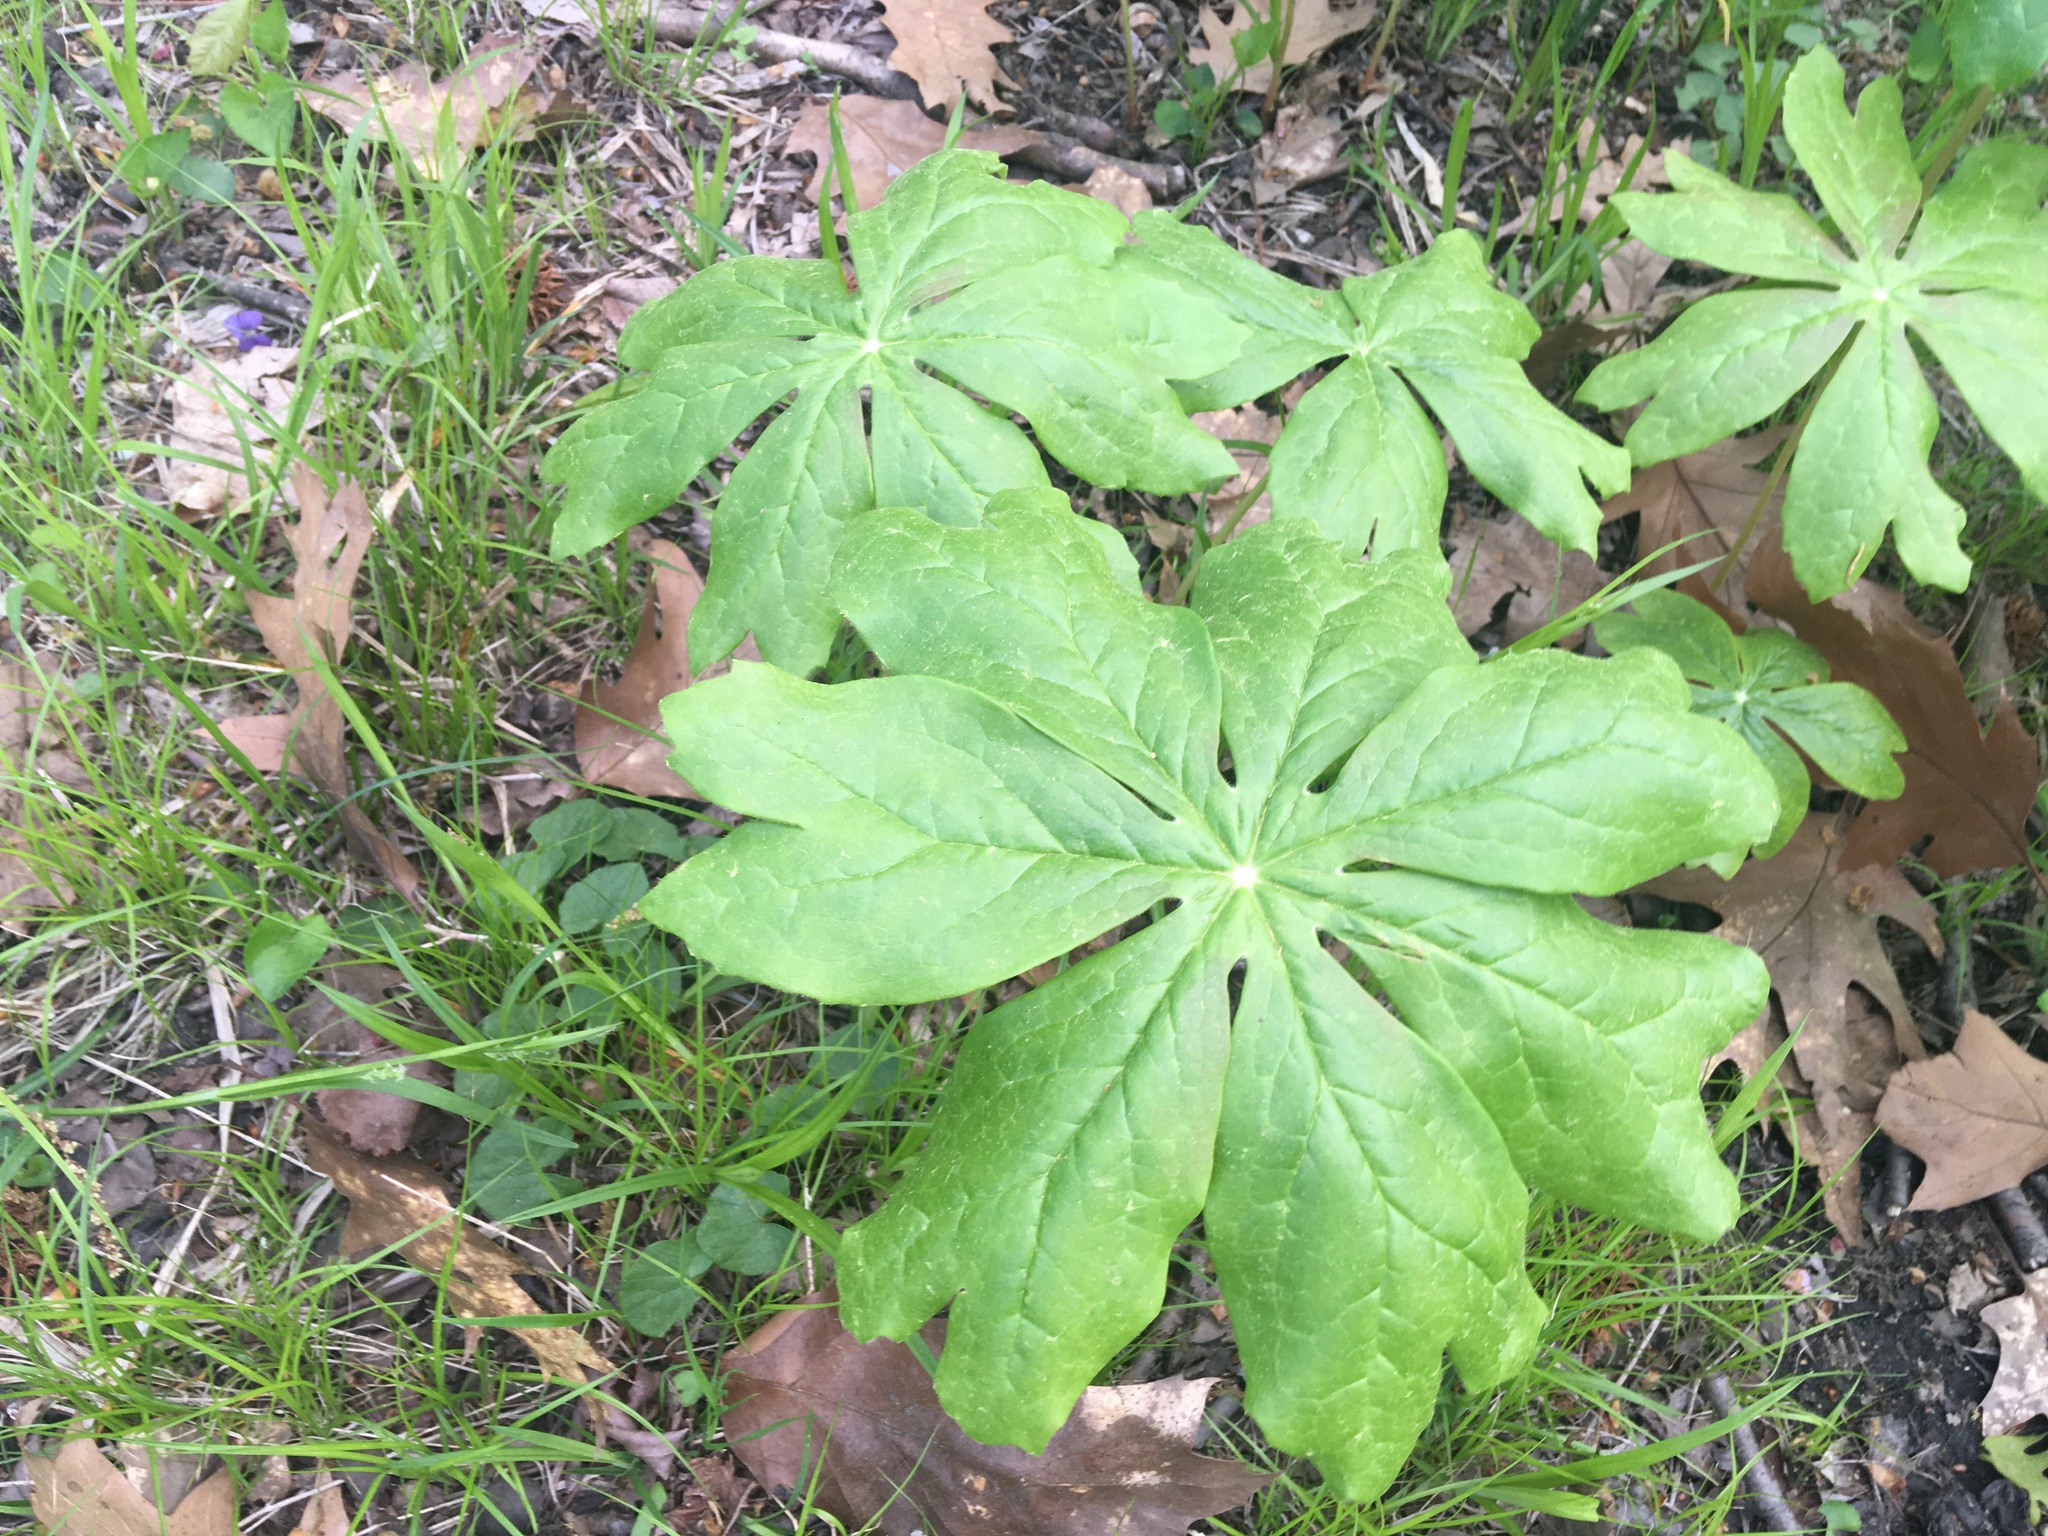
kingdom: Plantae
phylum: Tracheophyta
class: Magnoliopsida
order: Ranunculales
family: Berberidaceae
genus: Podophyllum
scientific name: Podophyllum peltatum
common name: Wild mandrake
